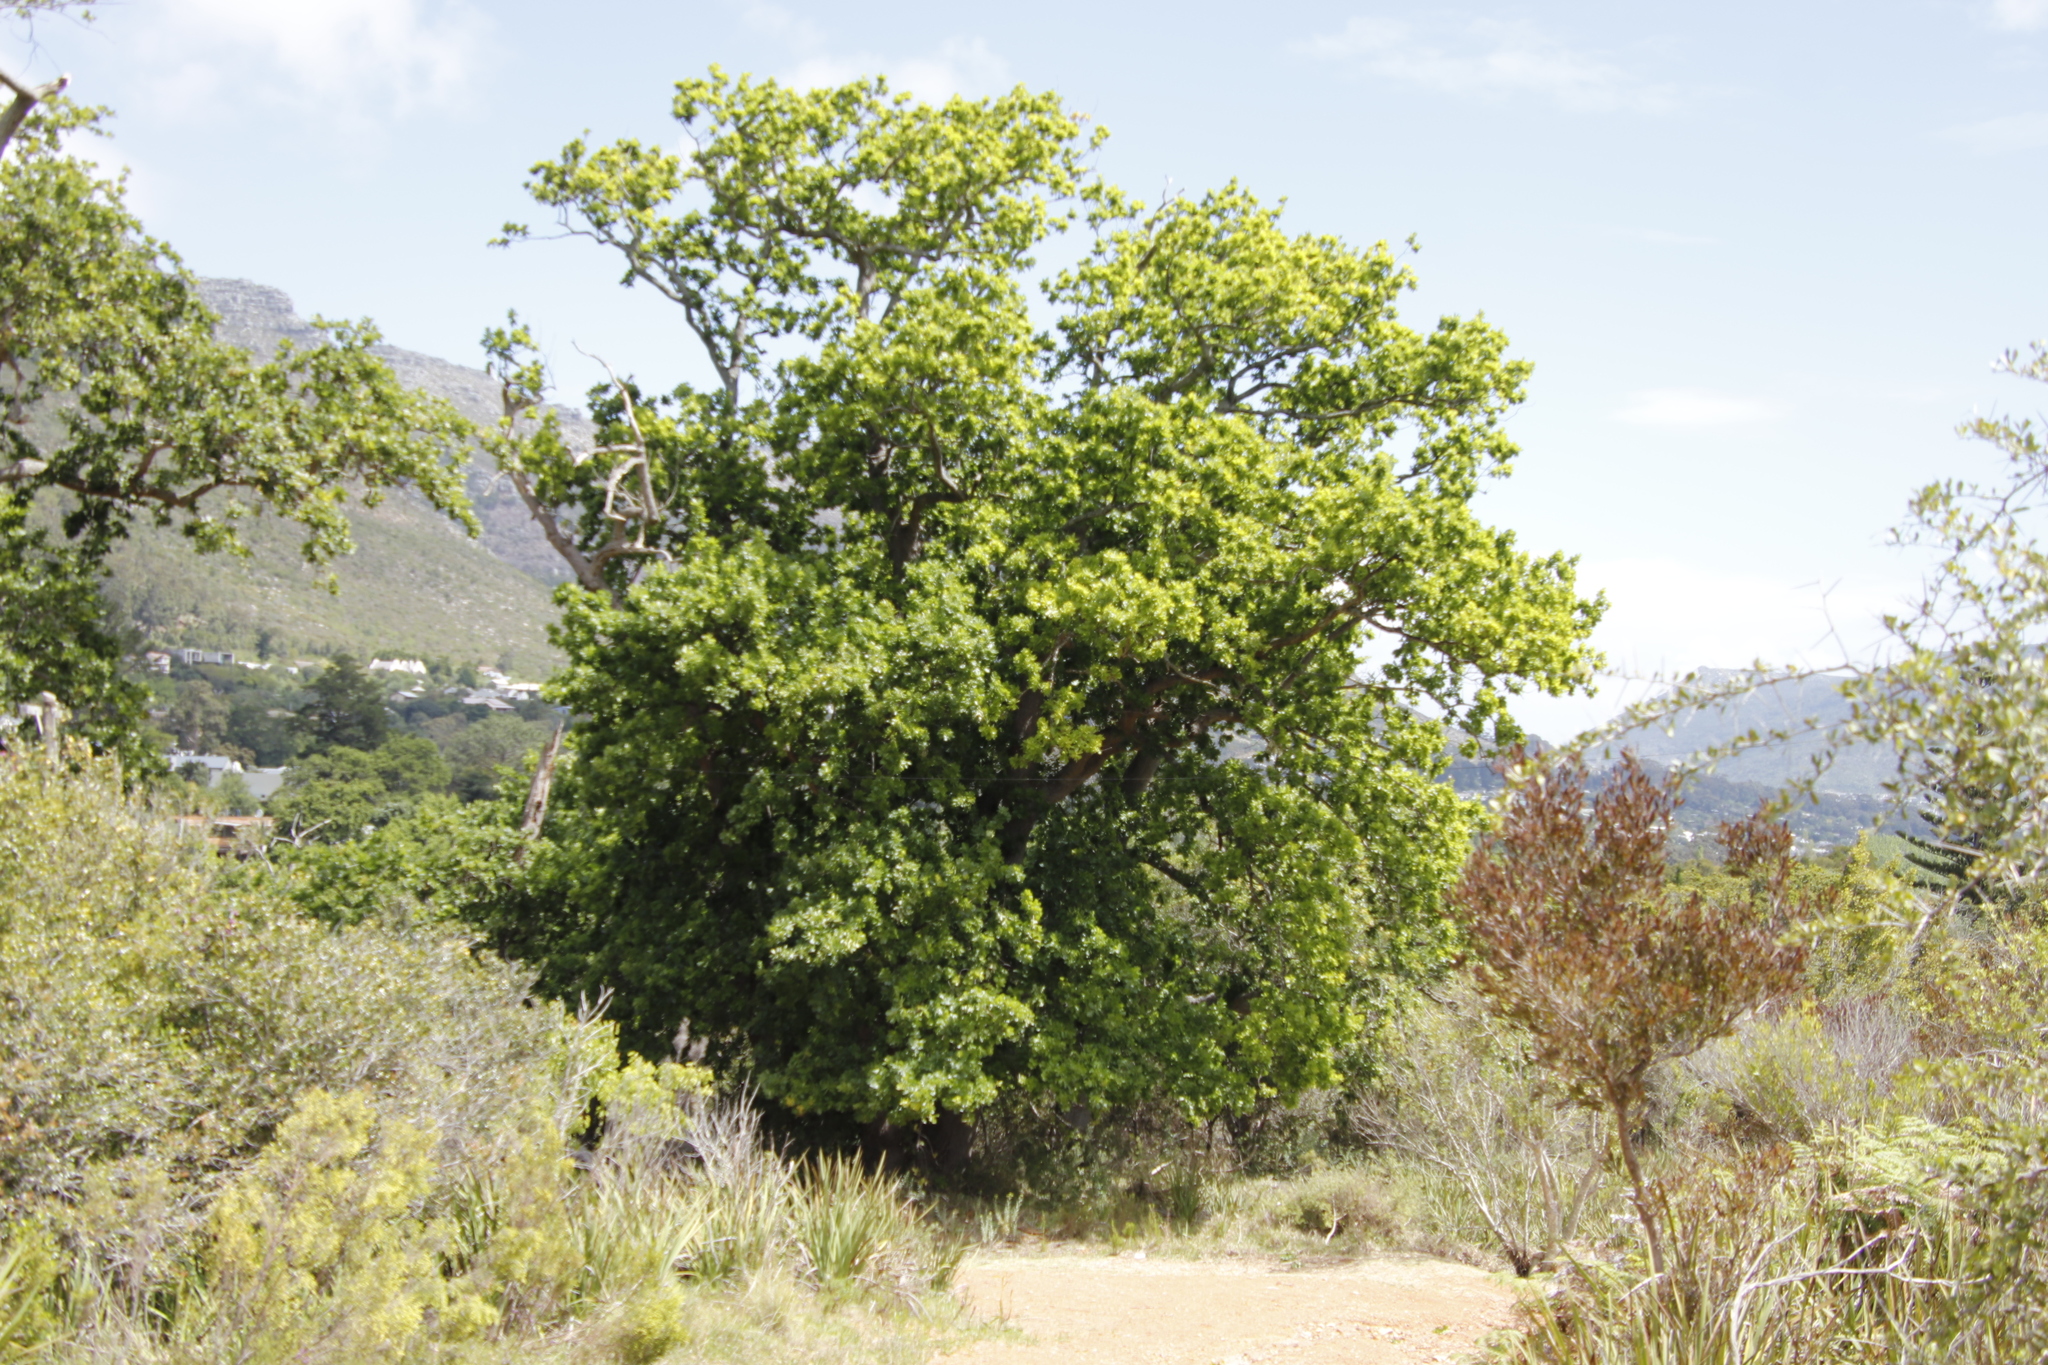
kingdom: Plantae
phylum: Tracheophyta
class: Magnoliopsida
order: Fagales
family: Fagaceae
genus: Quercus
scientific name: Quercus robur
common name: Pedunculate oak
